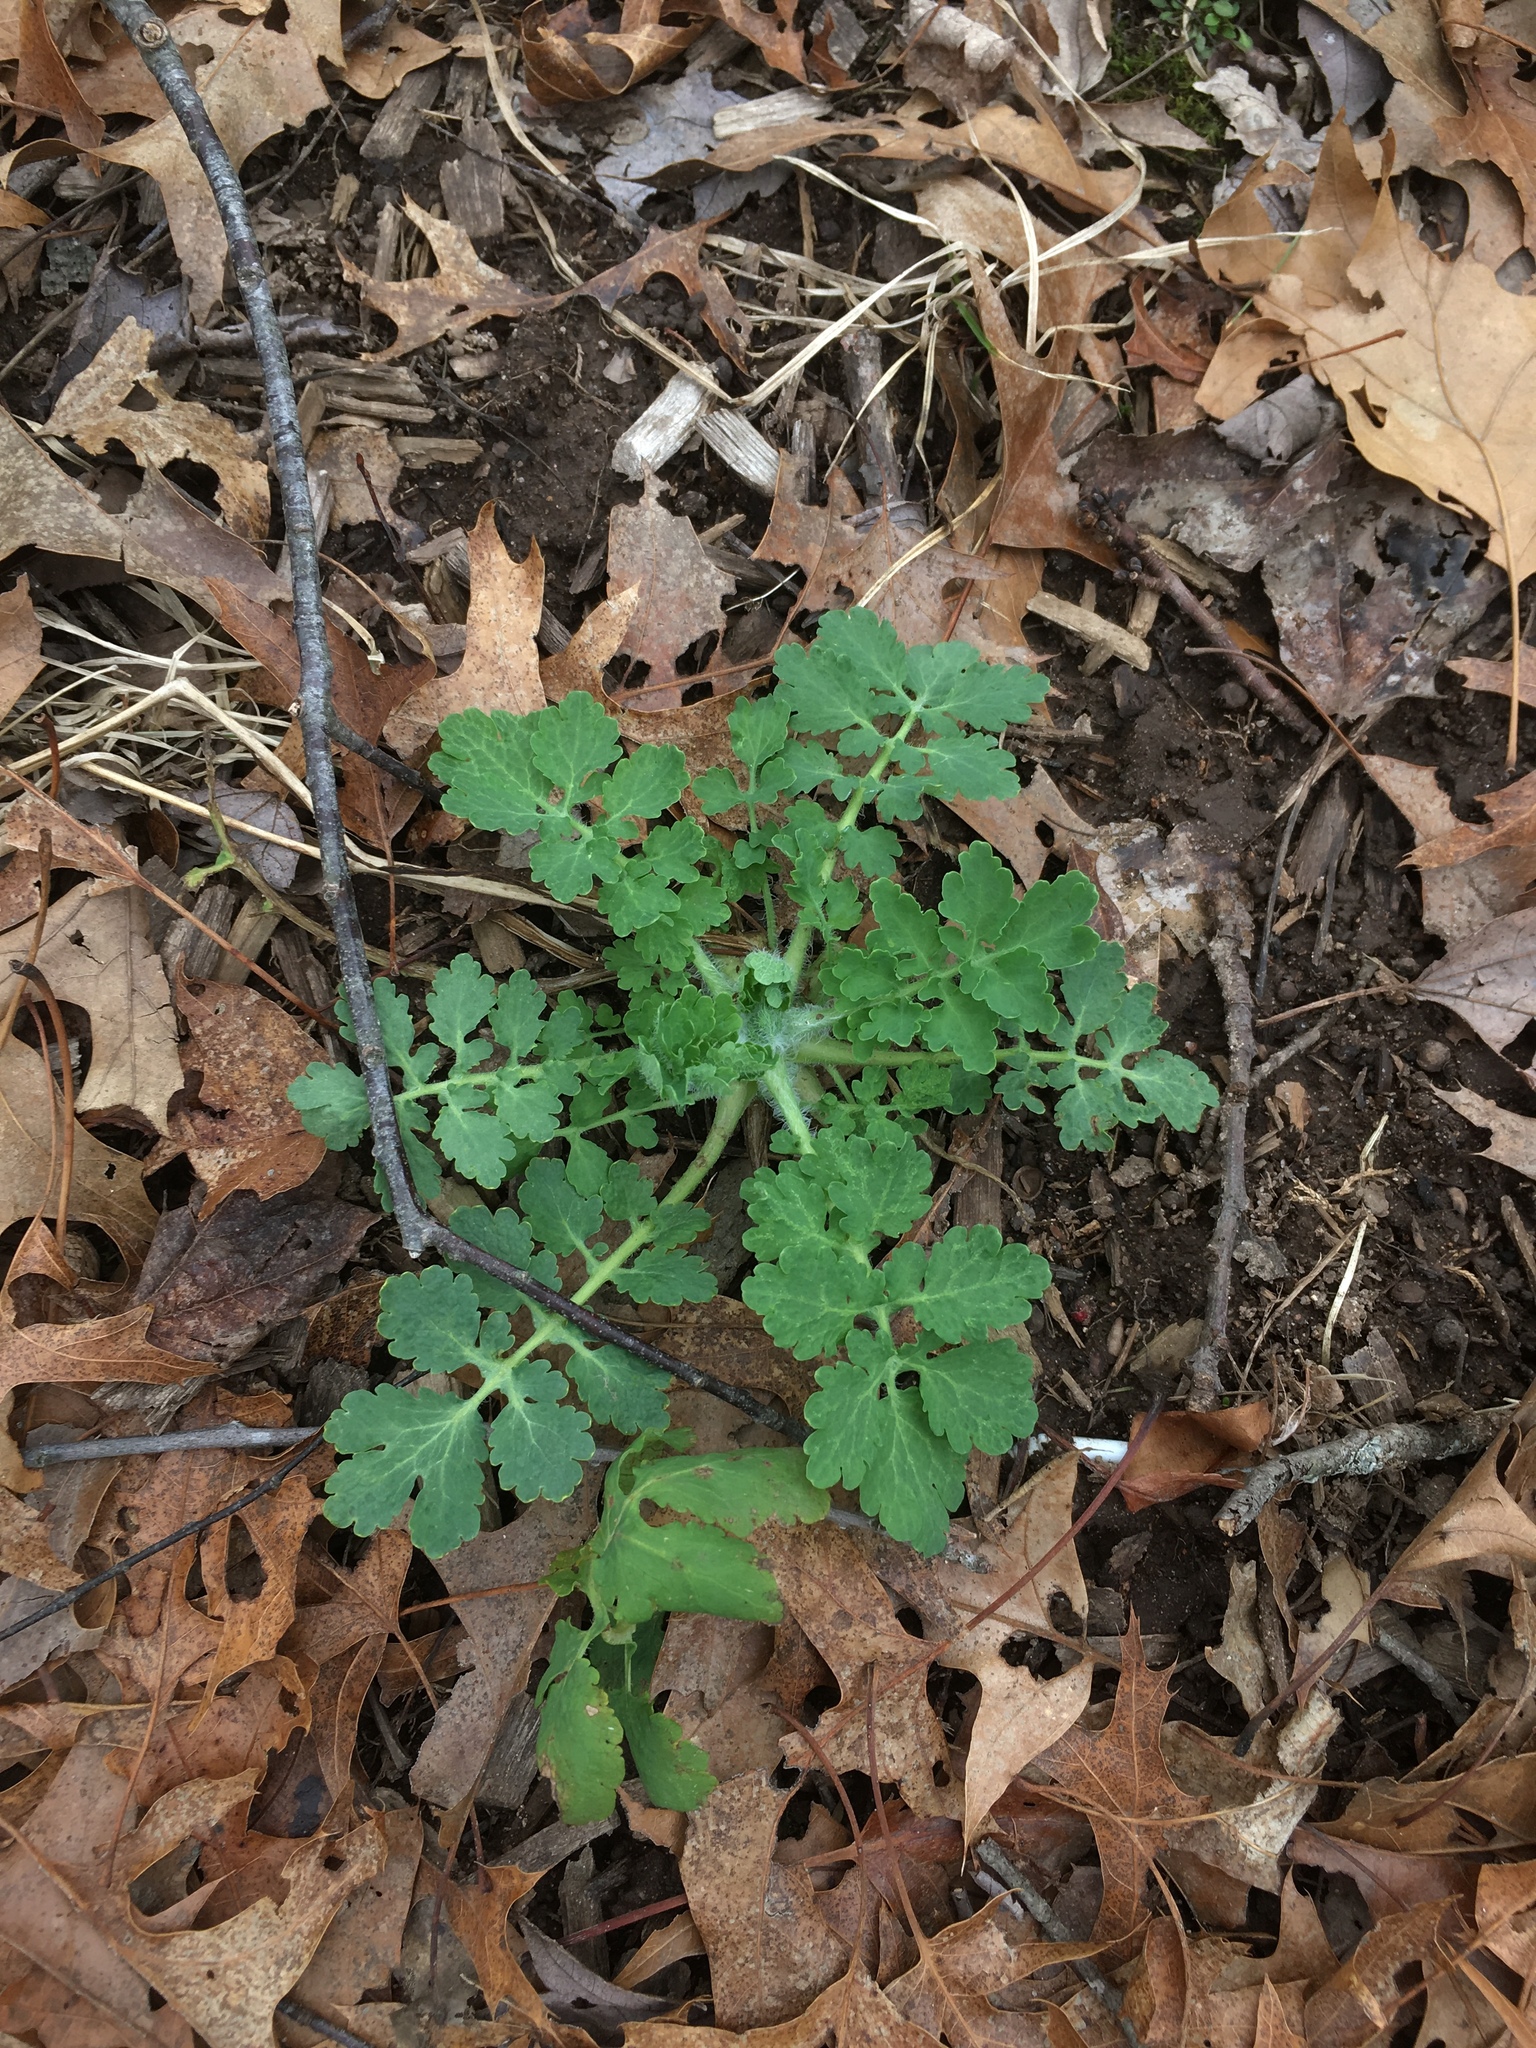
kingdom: Plantae
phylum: Tracheophyta
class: Magnoliopsida
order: Ranunculales
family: Papaveraceae
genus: Chelidonium
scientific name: Chelidonium majus
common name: Greater celandine
